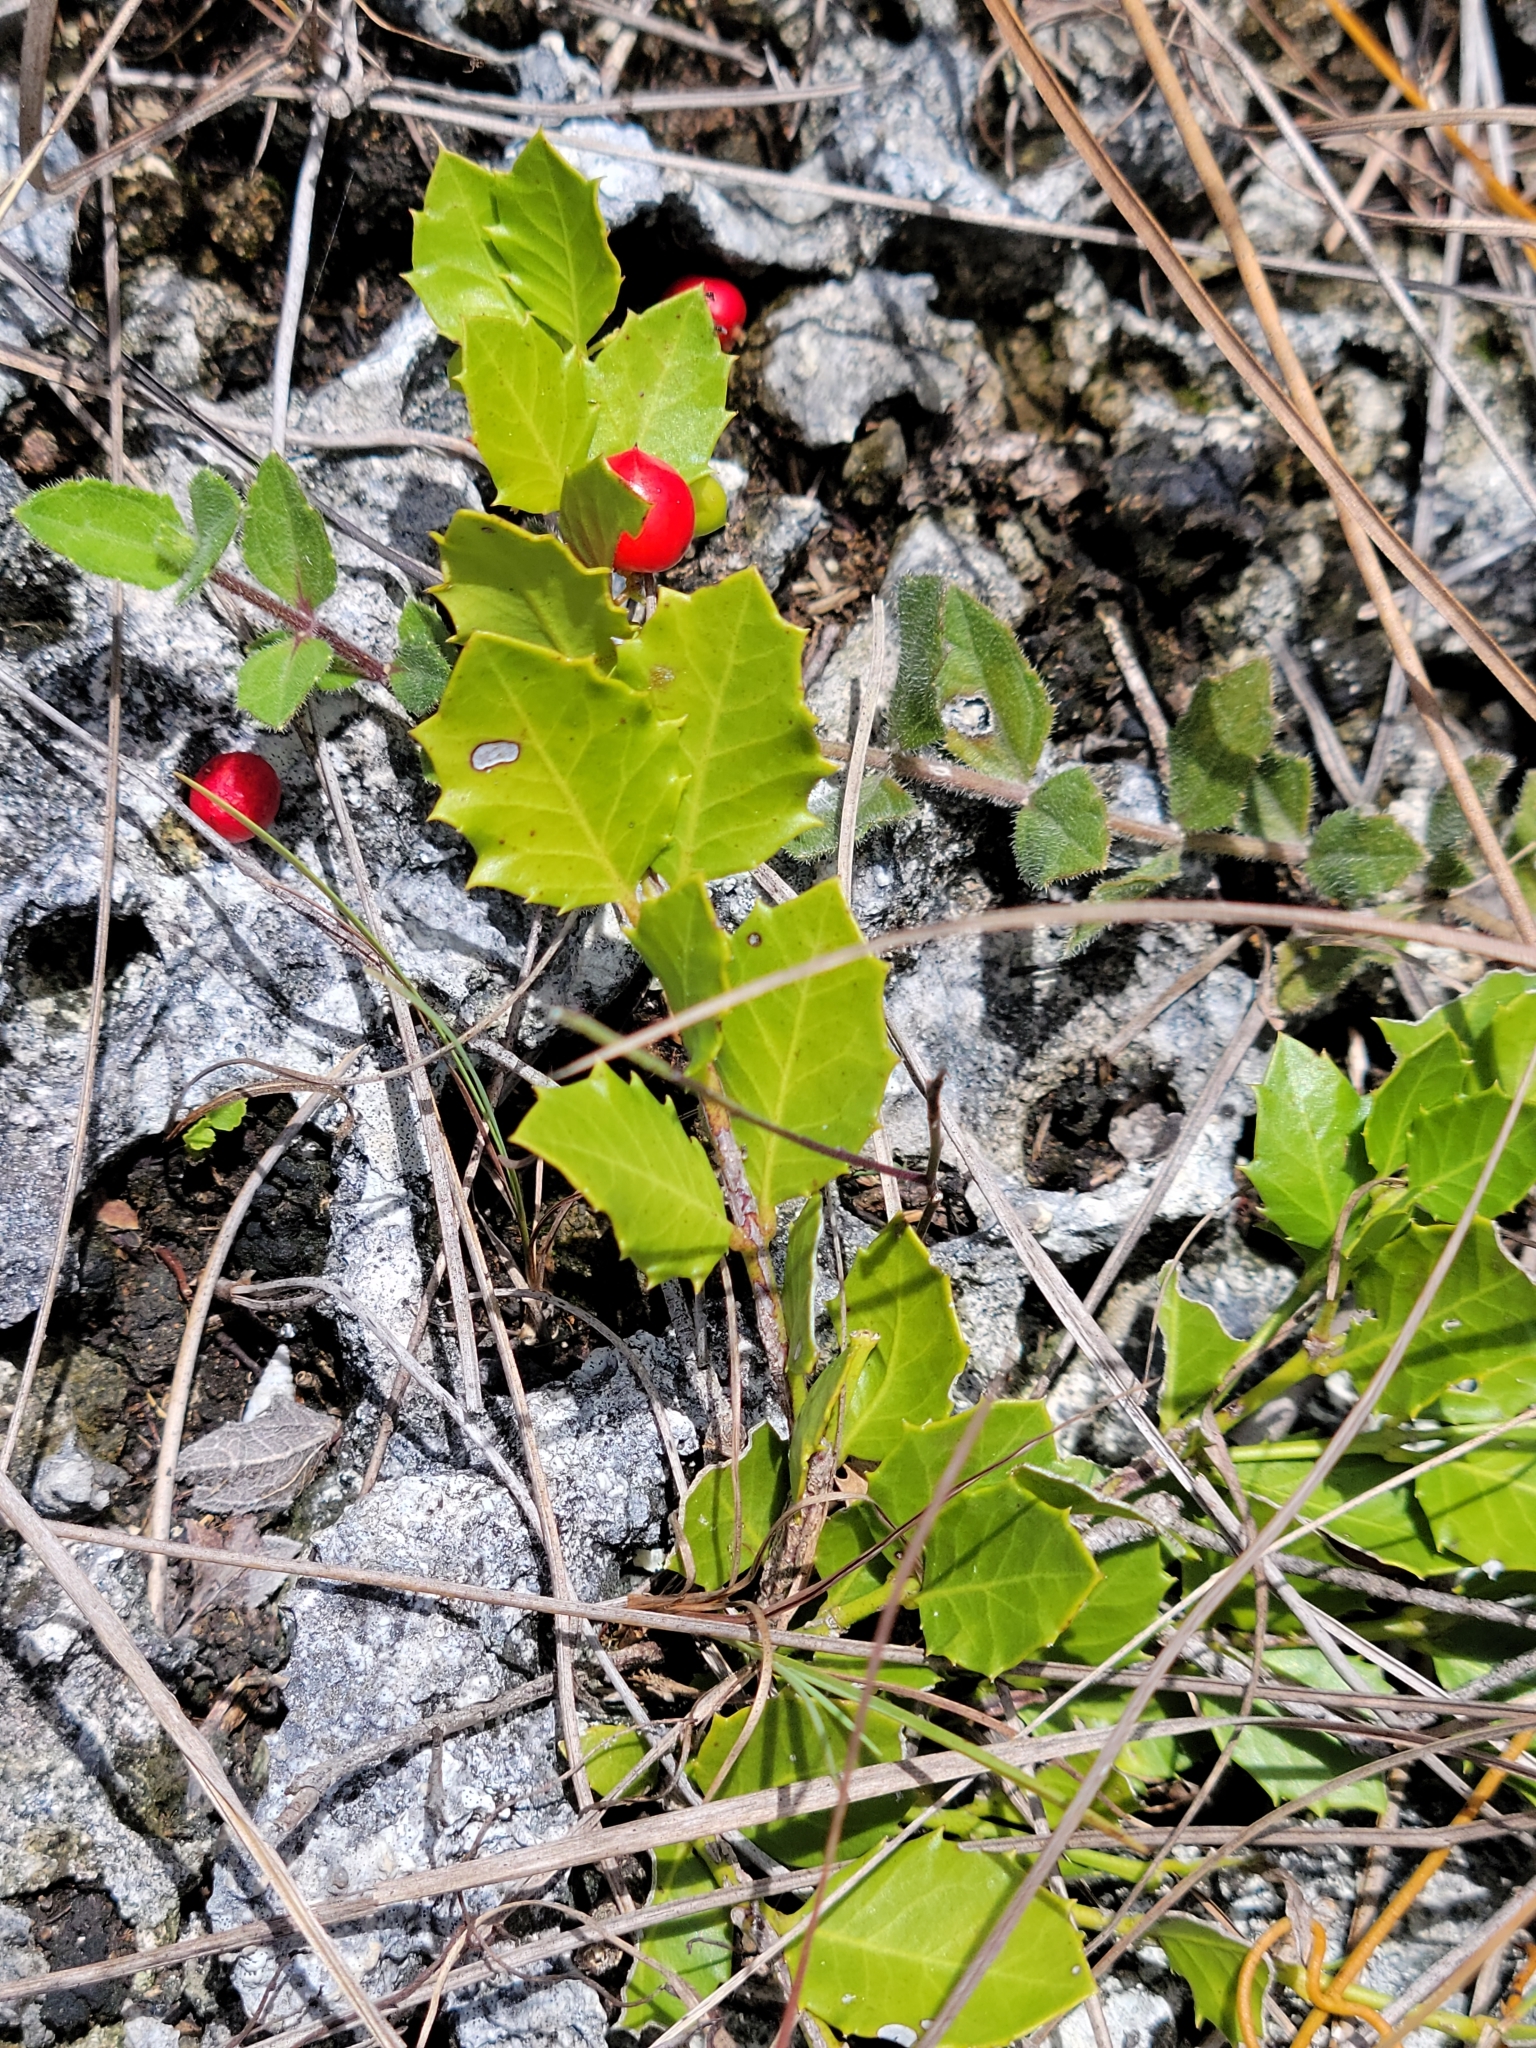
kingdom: Plantae
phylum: Tracheophyta
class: Magnoliopsida
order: Celastrales
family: Celastraceae
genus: Crossopetalum
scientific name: Crossopetalum ilicifolium
